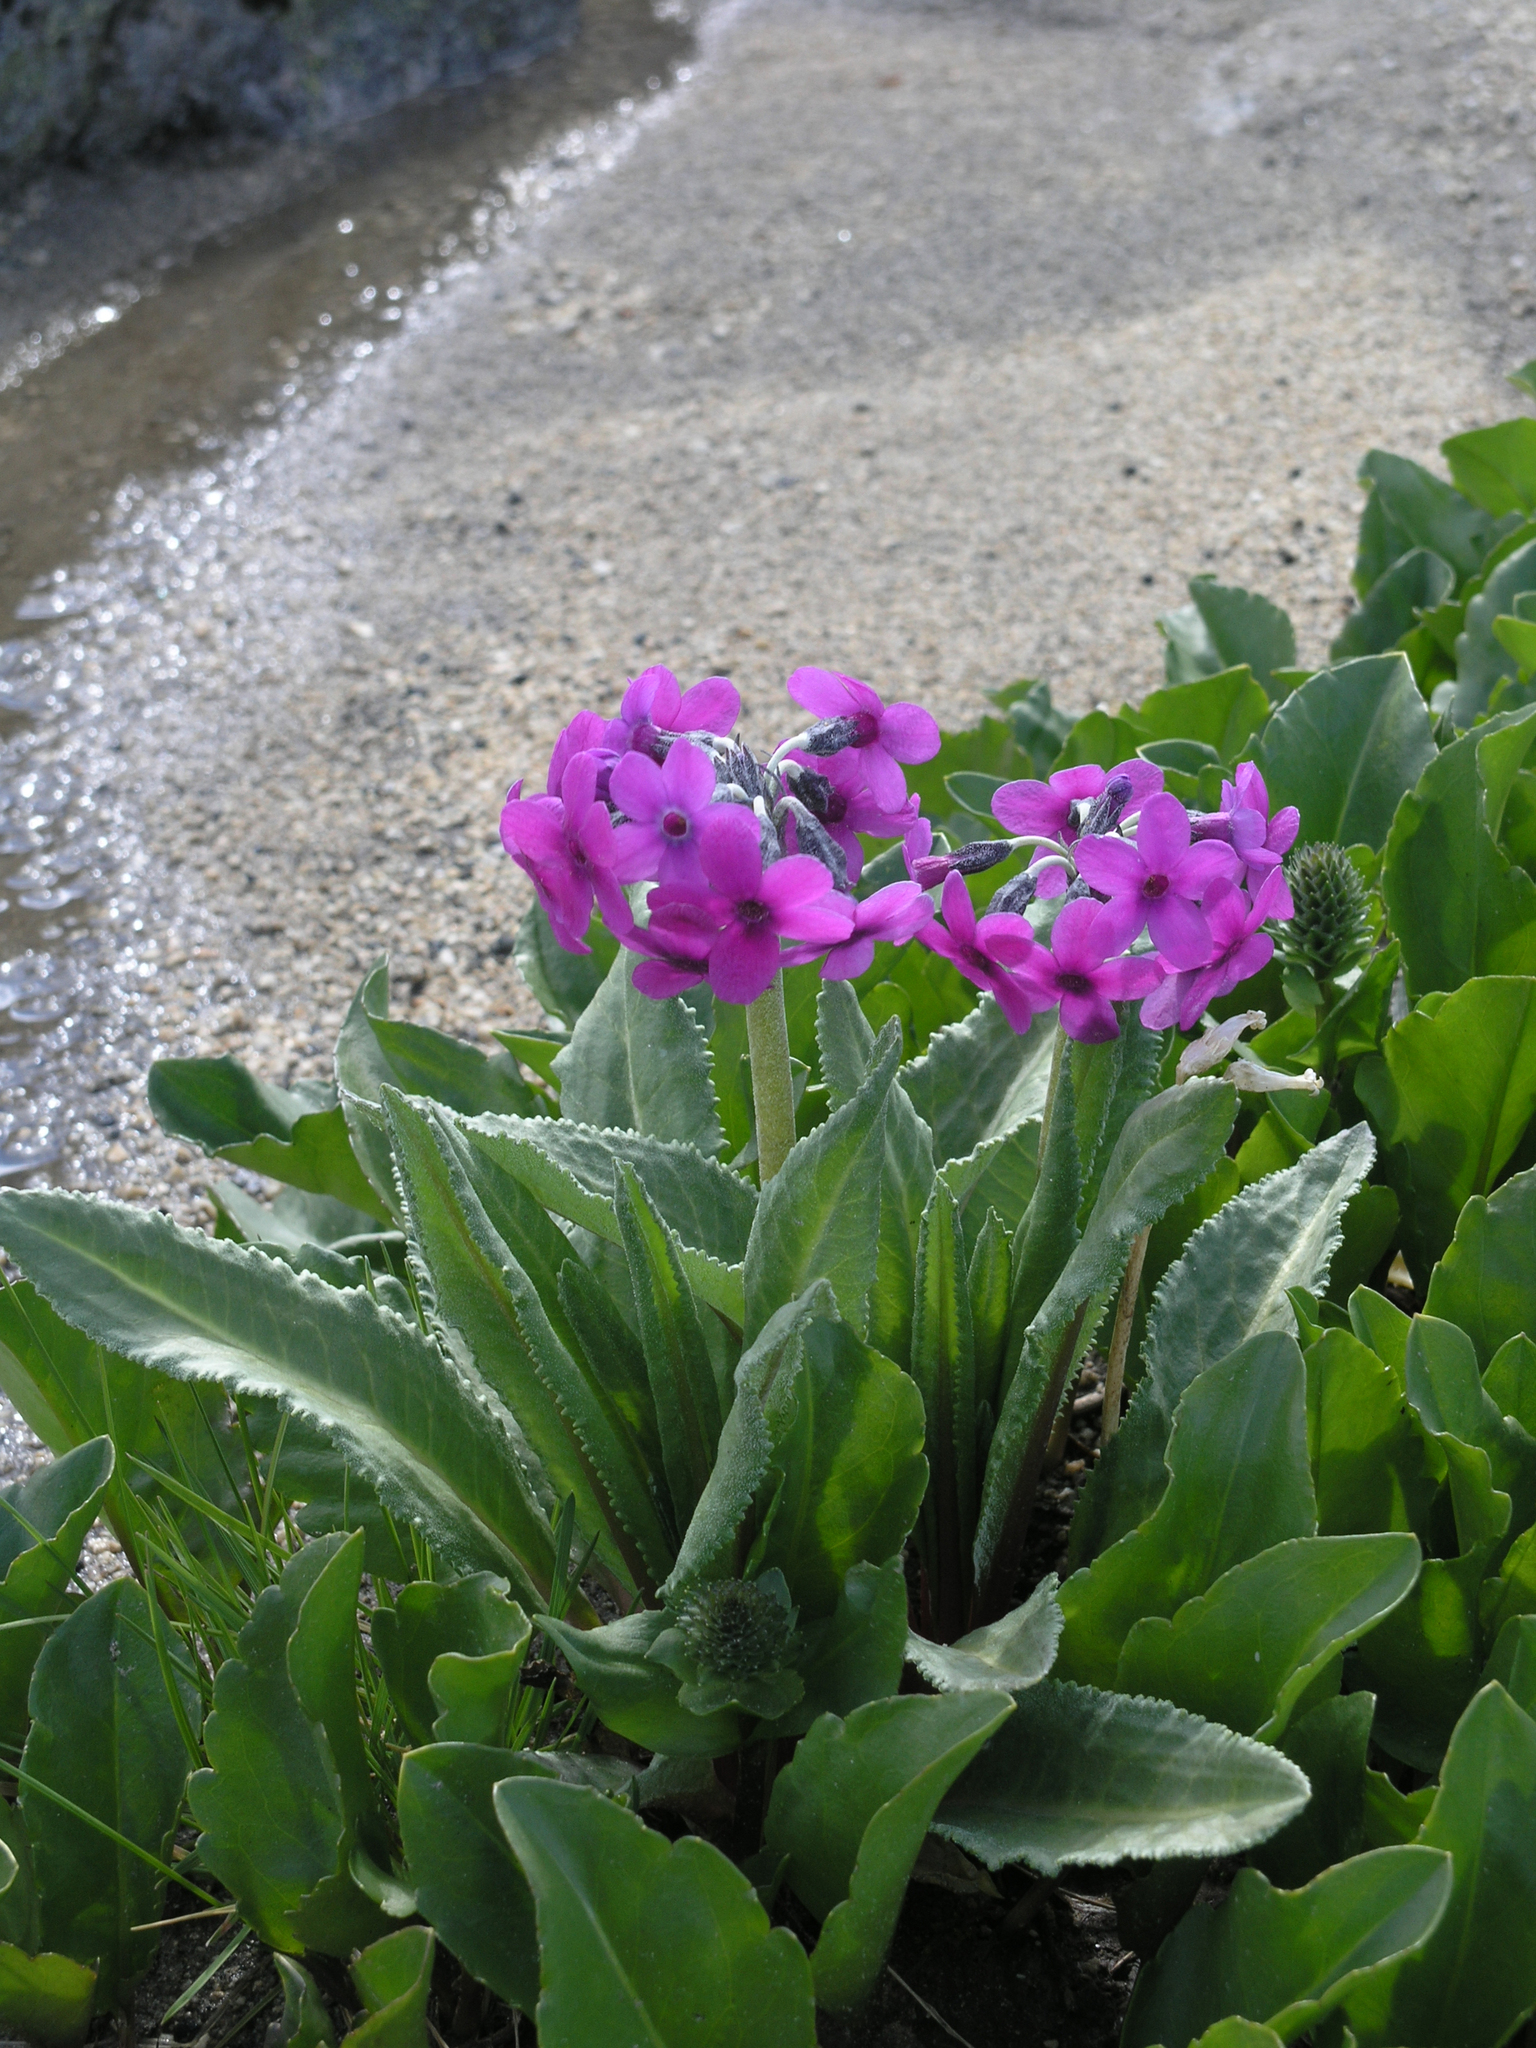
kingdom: Plantae
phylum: Tracheophyta
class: Magnoliopsida
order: Ericales
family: Primulaceae
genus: Primula
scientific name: Primula nivalis
